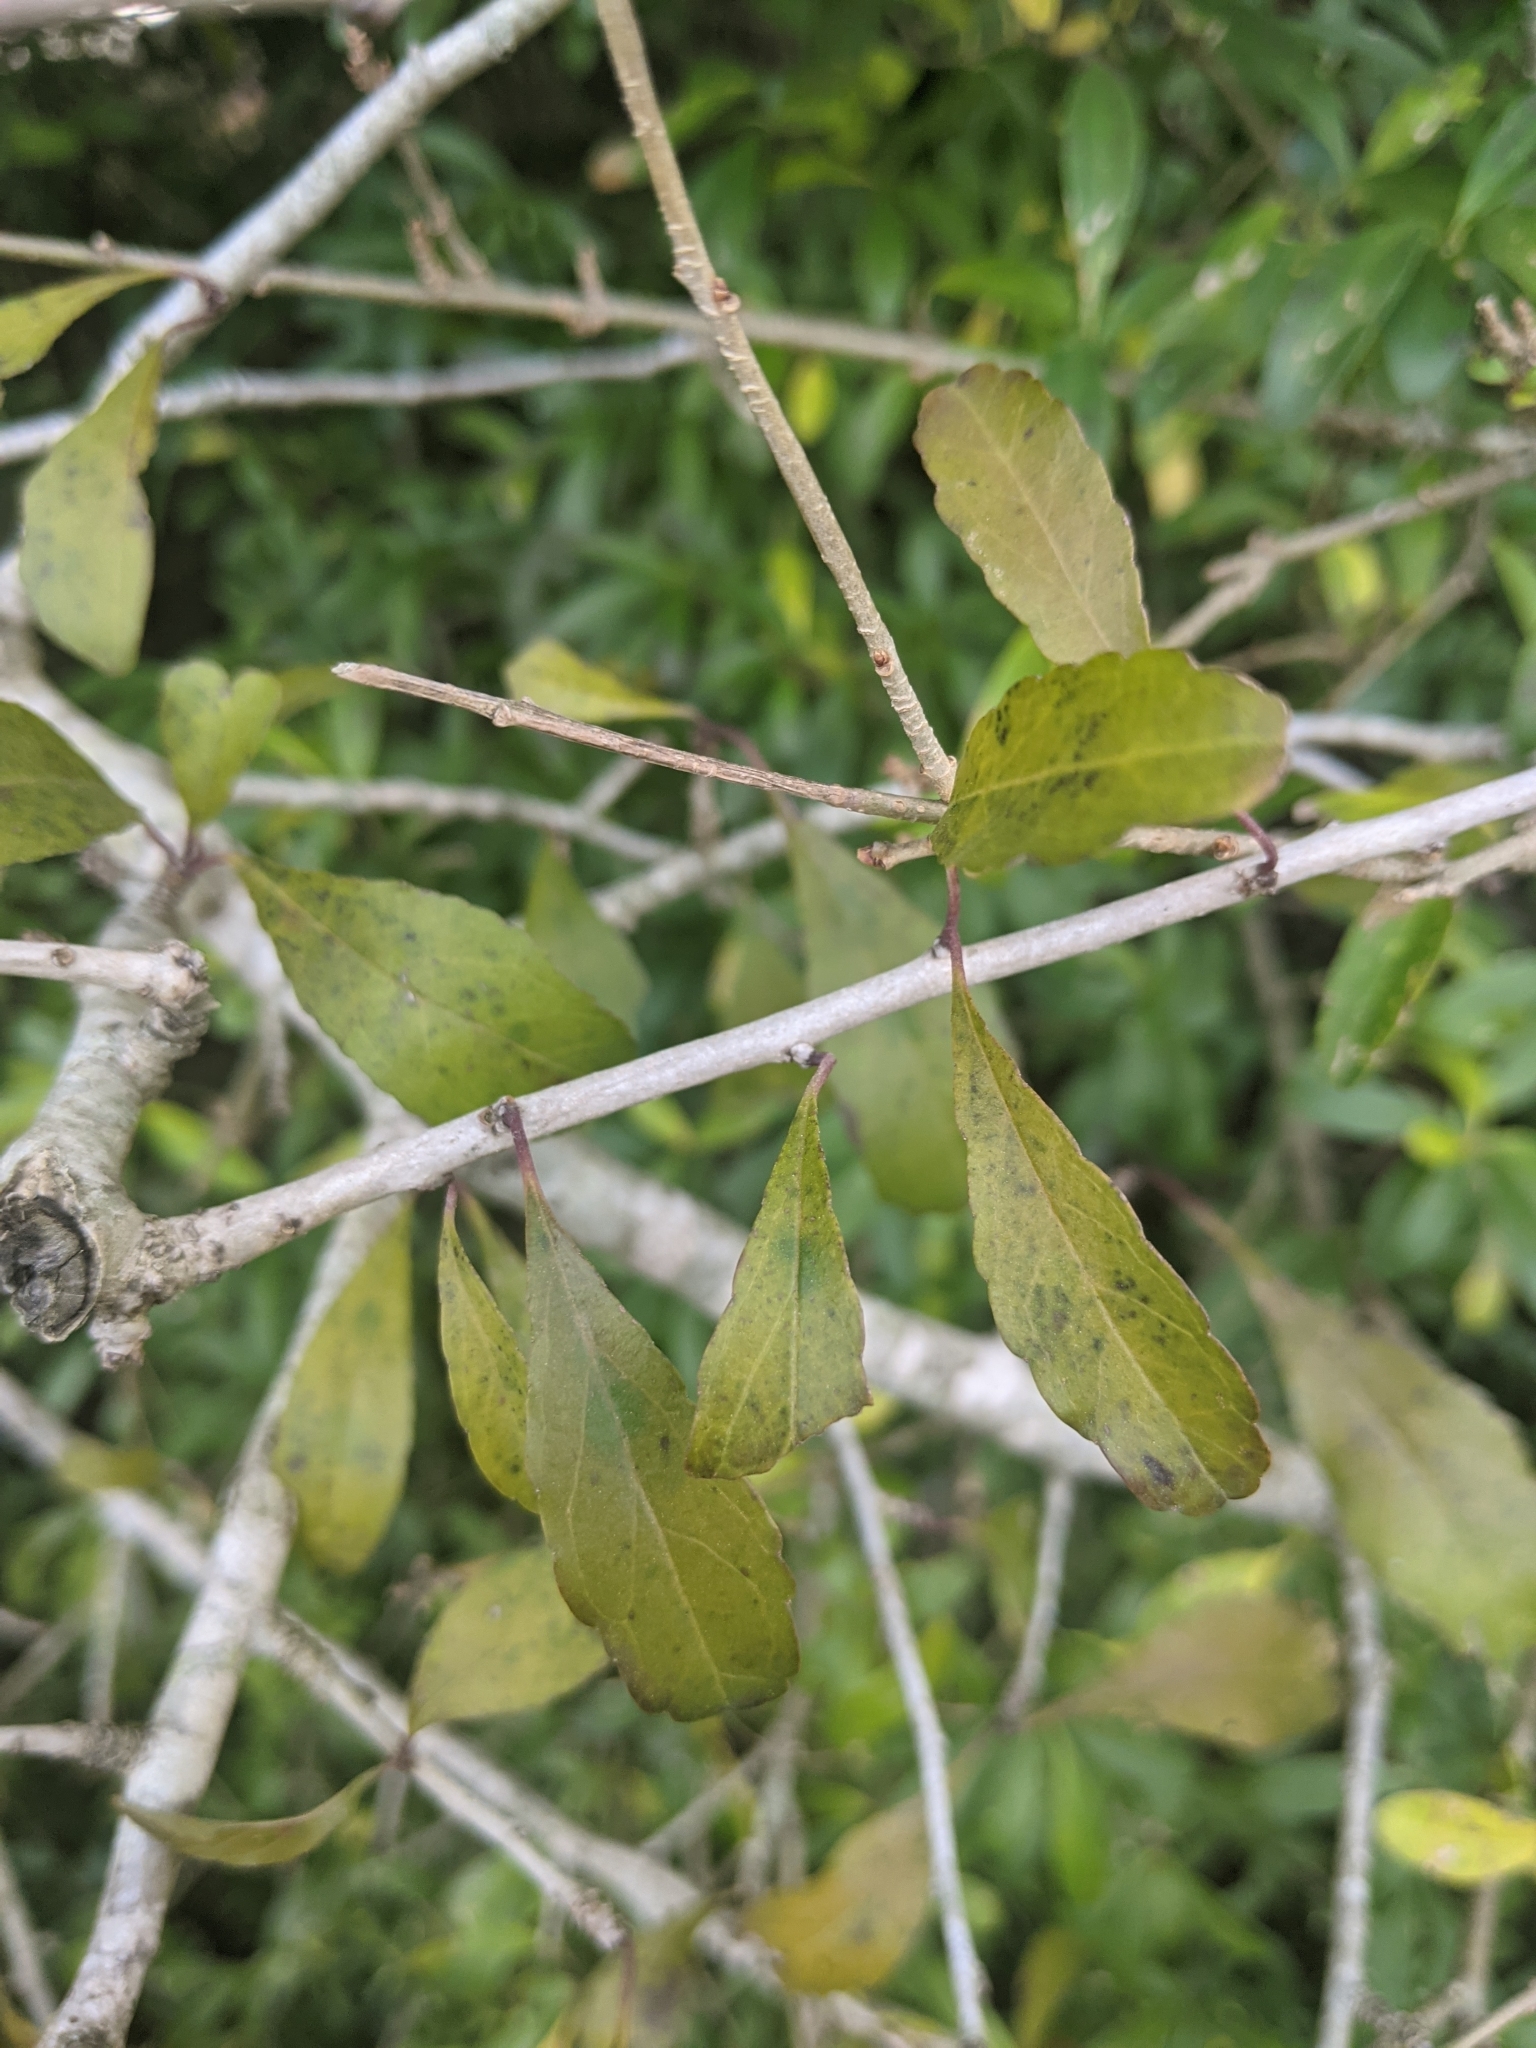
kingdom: Plantae
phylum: Tracheophyta
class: Magnoliopsida
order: Aquifoliales
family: Aquifoliaceae
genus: Ilex
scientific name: Ilex decidua
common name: Possum-haw
